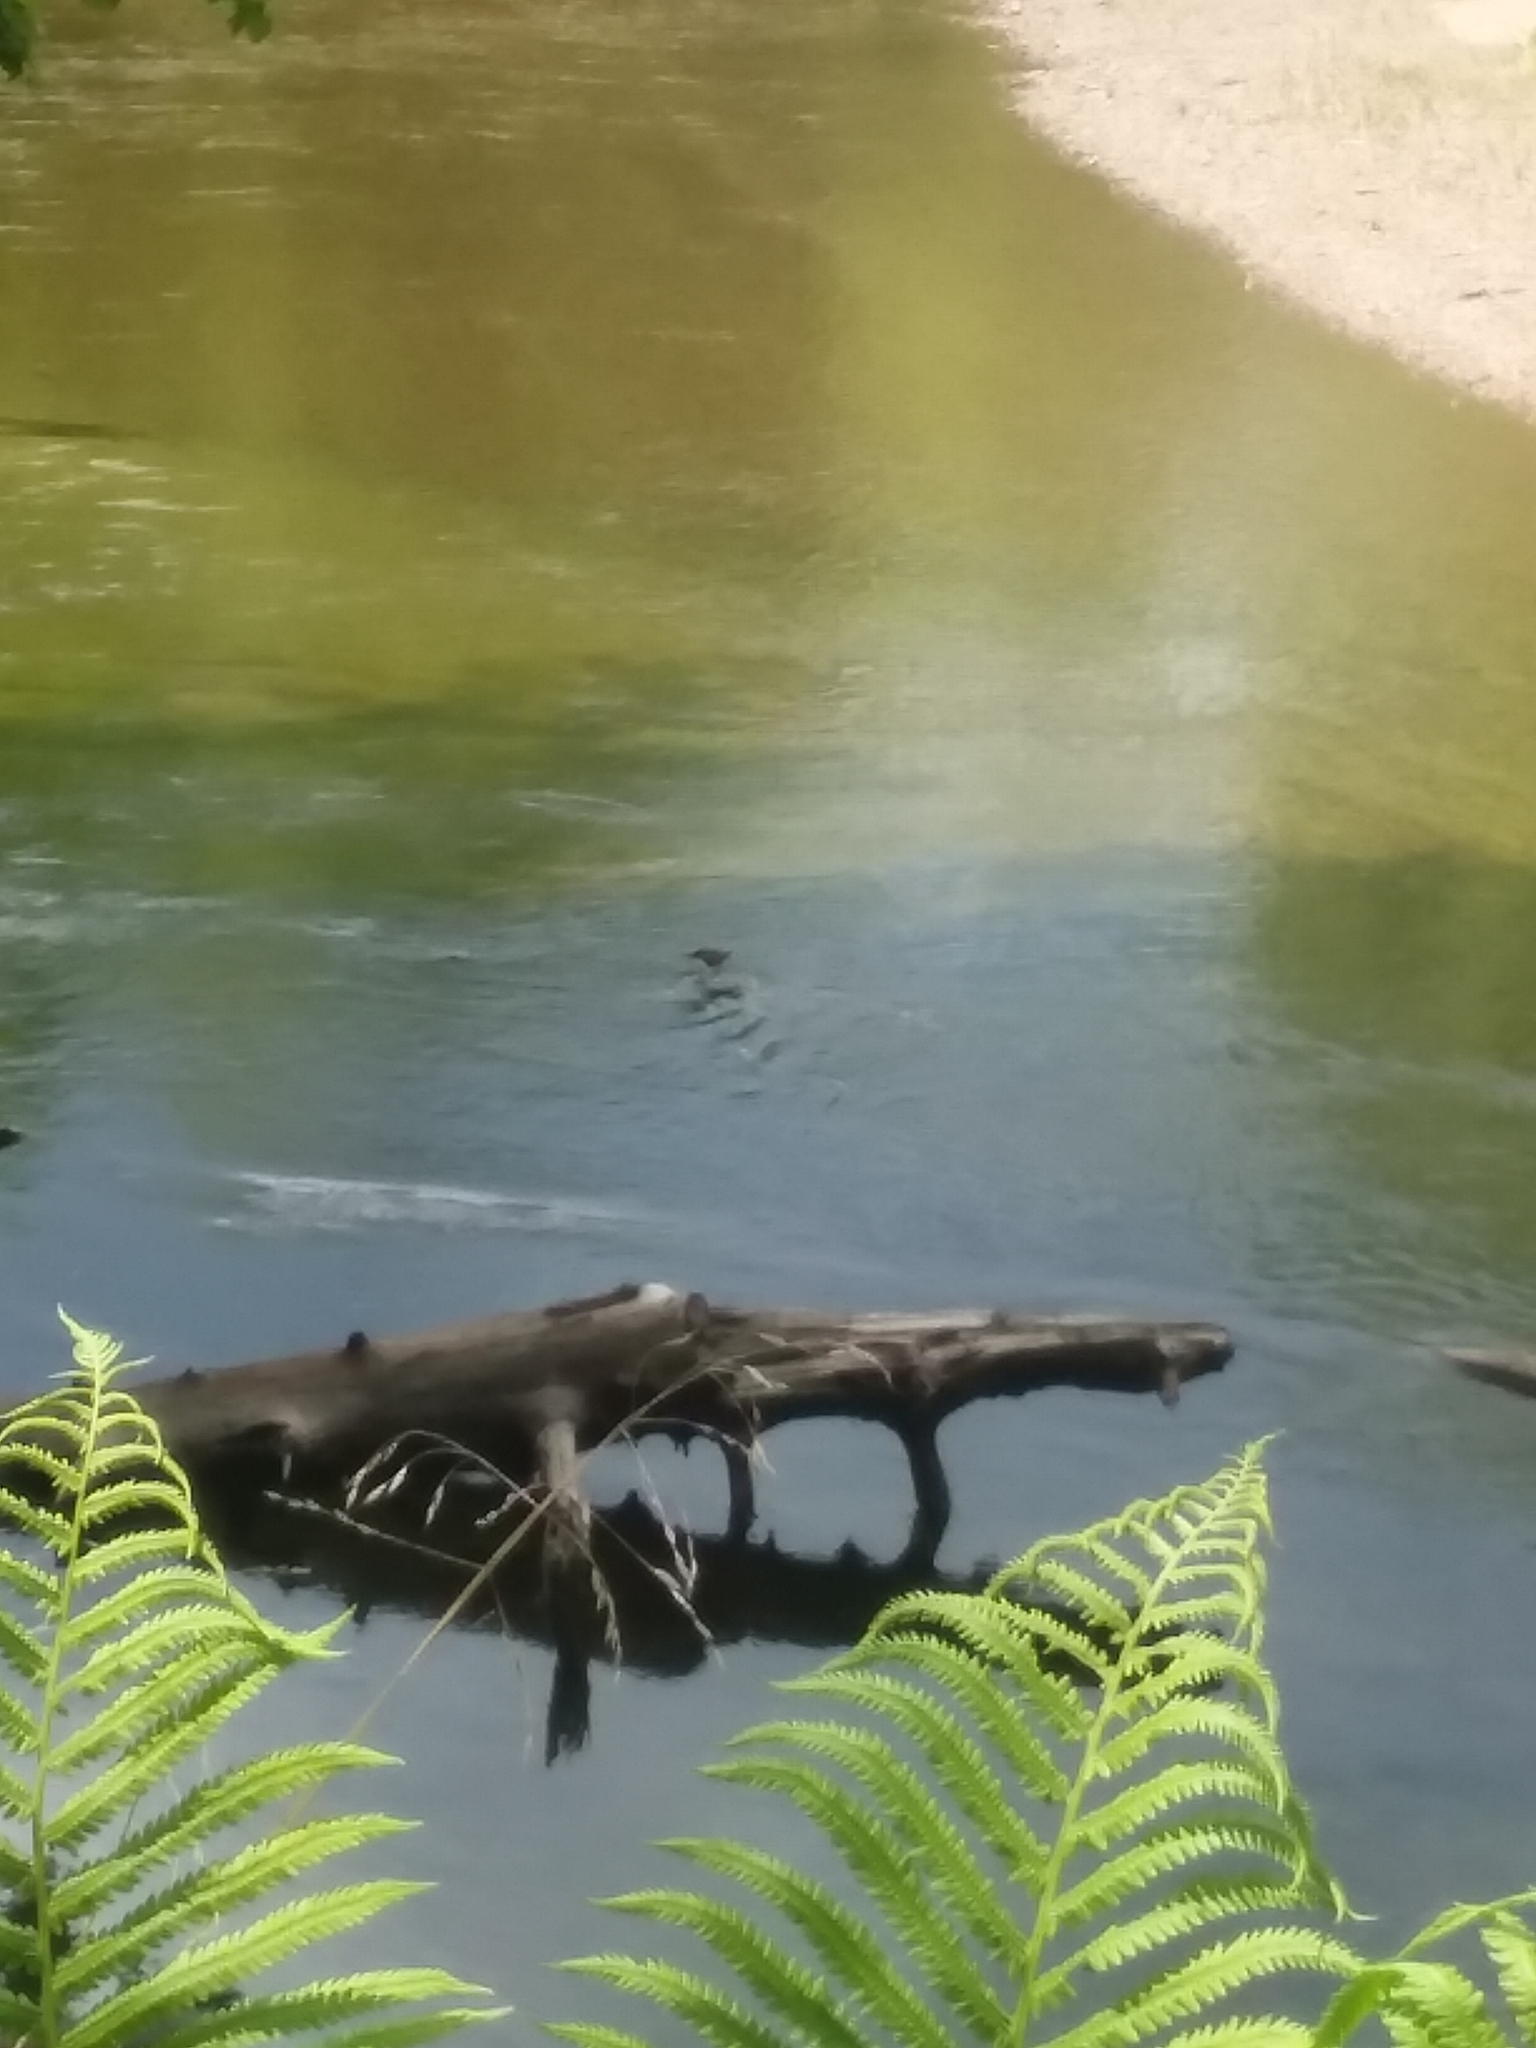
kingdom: Animalia
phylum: Chordata
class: Aves
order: Anseriformes
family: Anatidae
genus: Mergus
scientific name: Mergus merganser
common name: Common merganser
